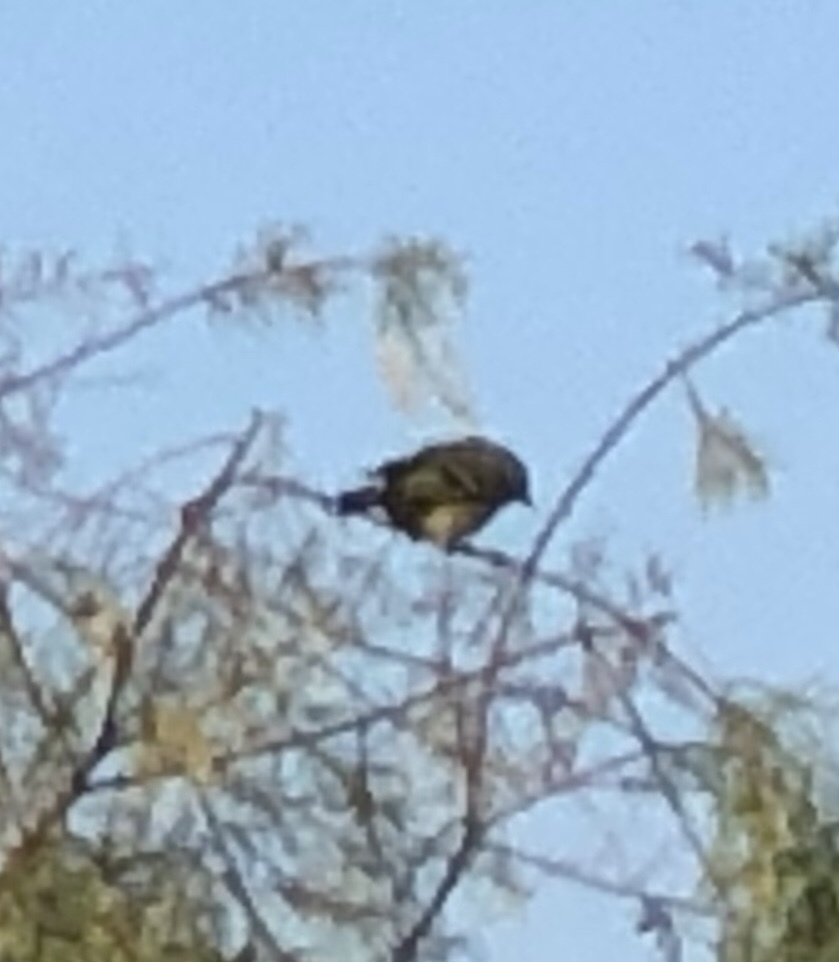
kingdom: Animalia
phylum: Chordata
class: Aves
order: Passeriformes
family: Regulidae
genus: Regulus
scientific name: Regulus calendula
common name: Ruby-crowned kinglet
